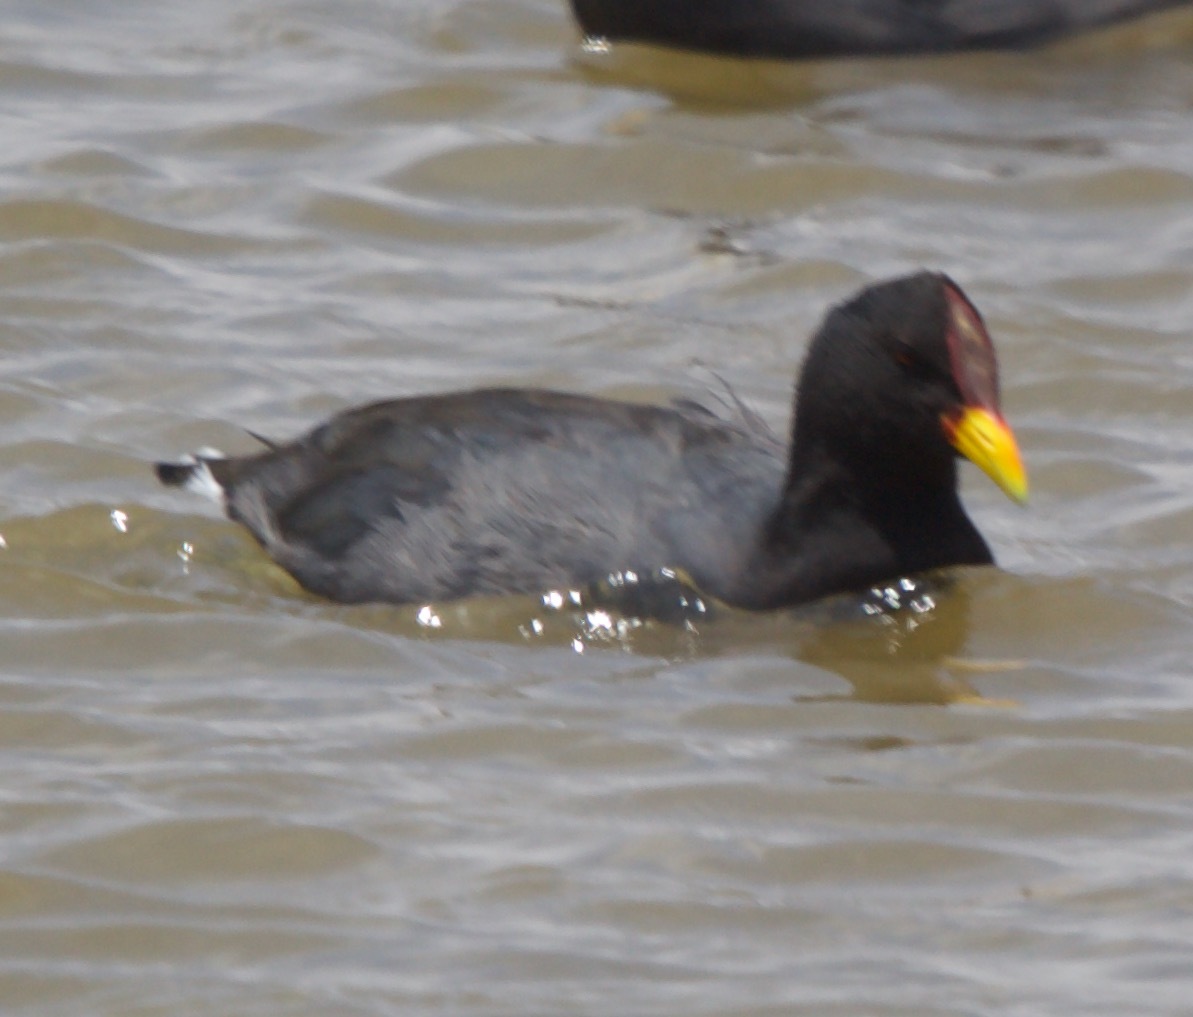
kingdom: Animalia
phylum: Chordata
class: Aves
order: Gruiformes
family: Rallidae
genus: Fulica
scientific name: Fulica rufifrons
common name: Red-fronted coot
